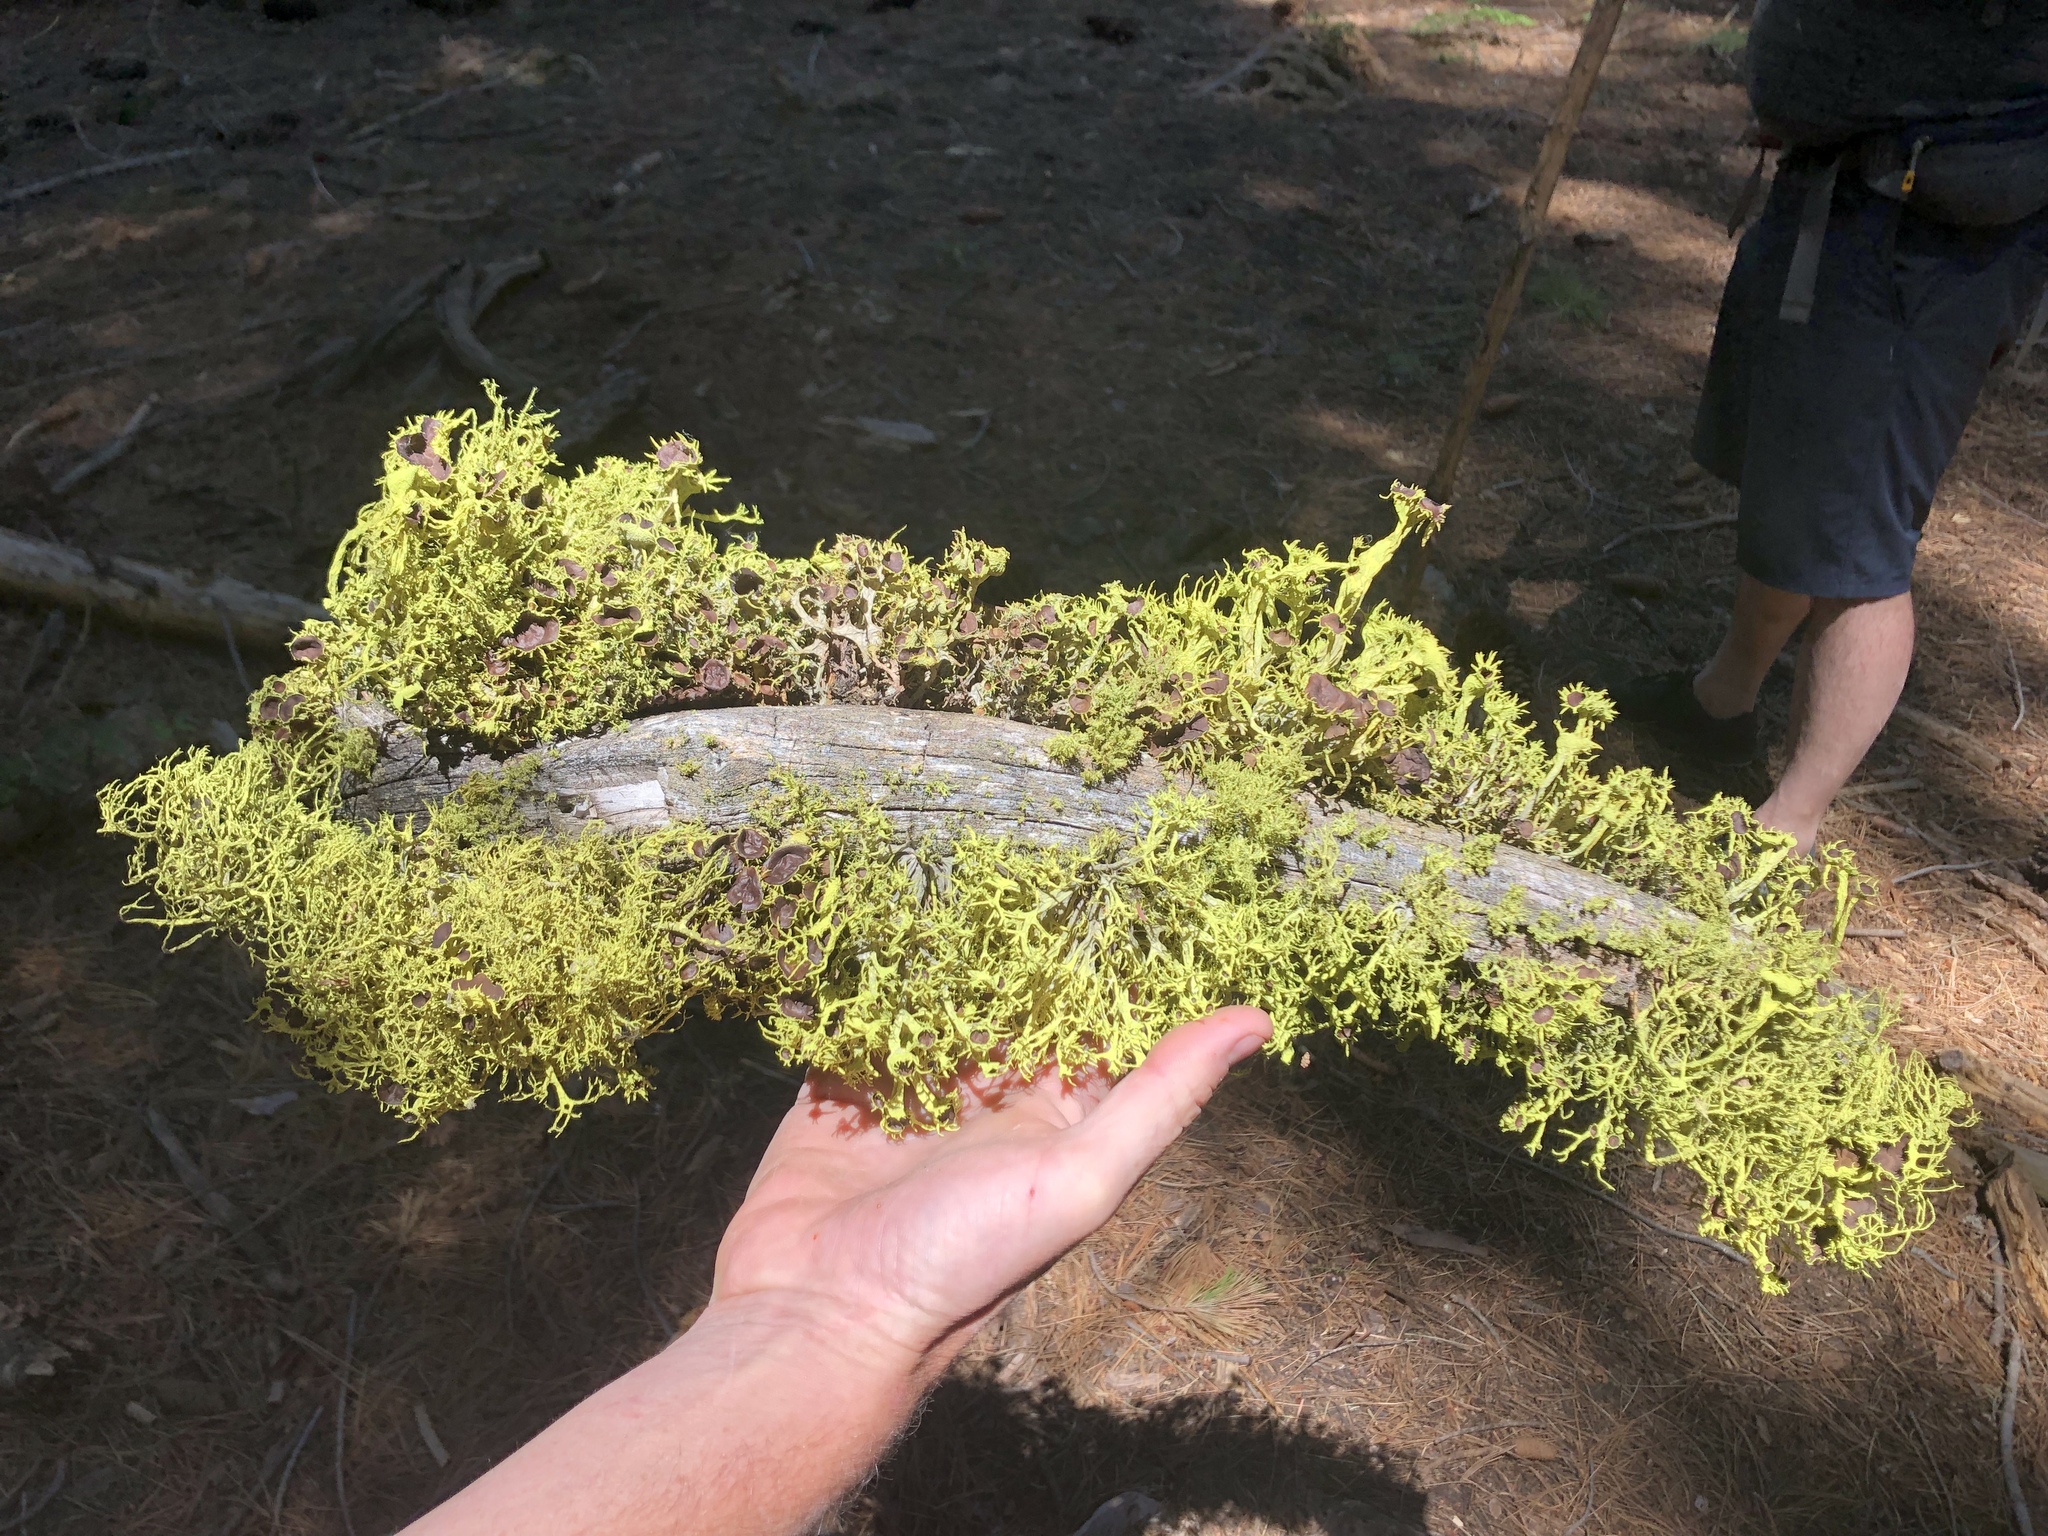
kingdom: Fungi
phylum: Ascomycota
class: Lecanoromycetes
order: Lecanorales
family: Parmeliaceae
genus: Letharia
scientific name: Letharia columbiana
